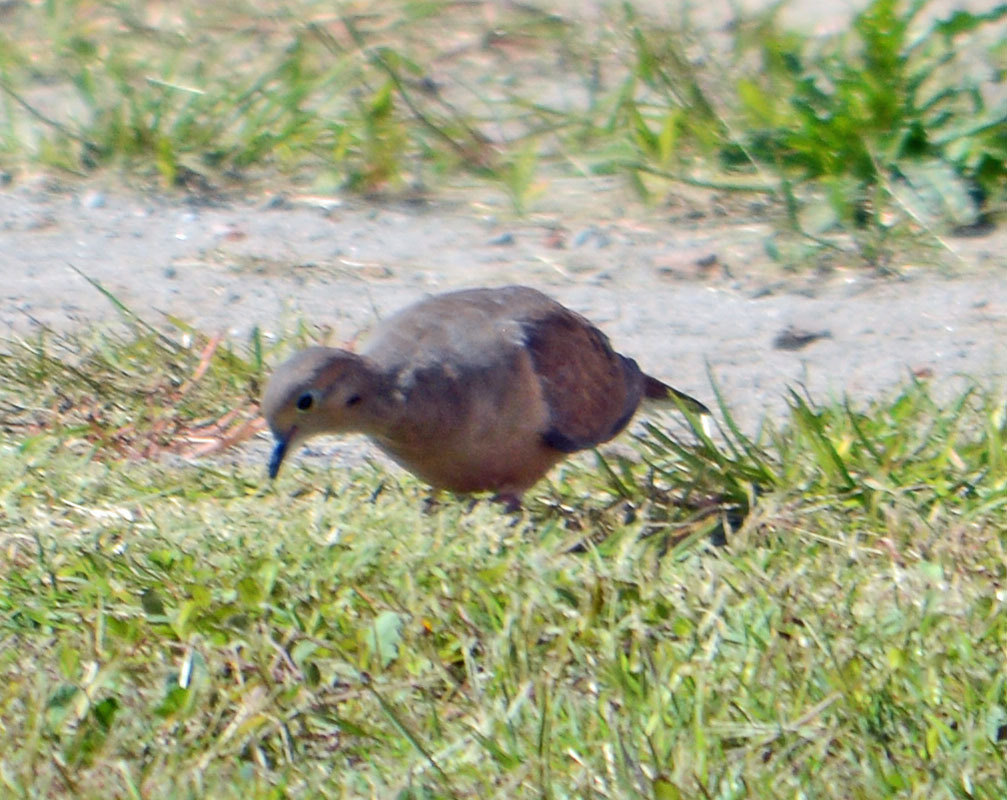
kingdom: Animalia
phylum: Chordata
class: Aves
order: Columbiformes
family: Columbidae
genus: Zenaida
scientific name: Zenaida macroura
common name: Mourning dove
